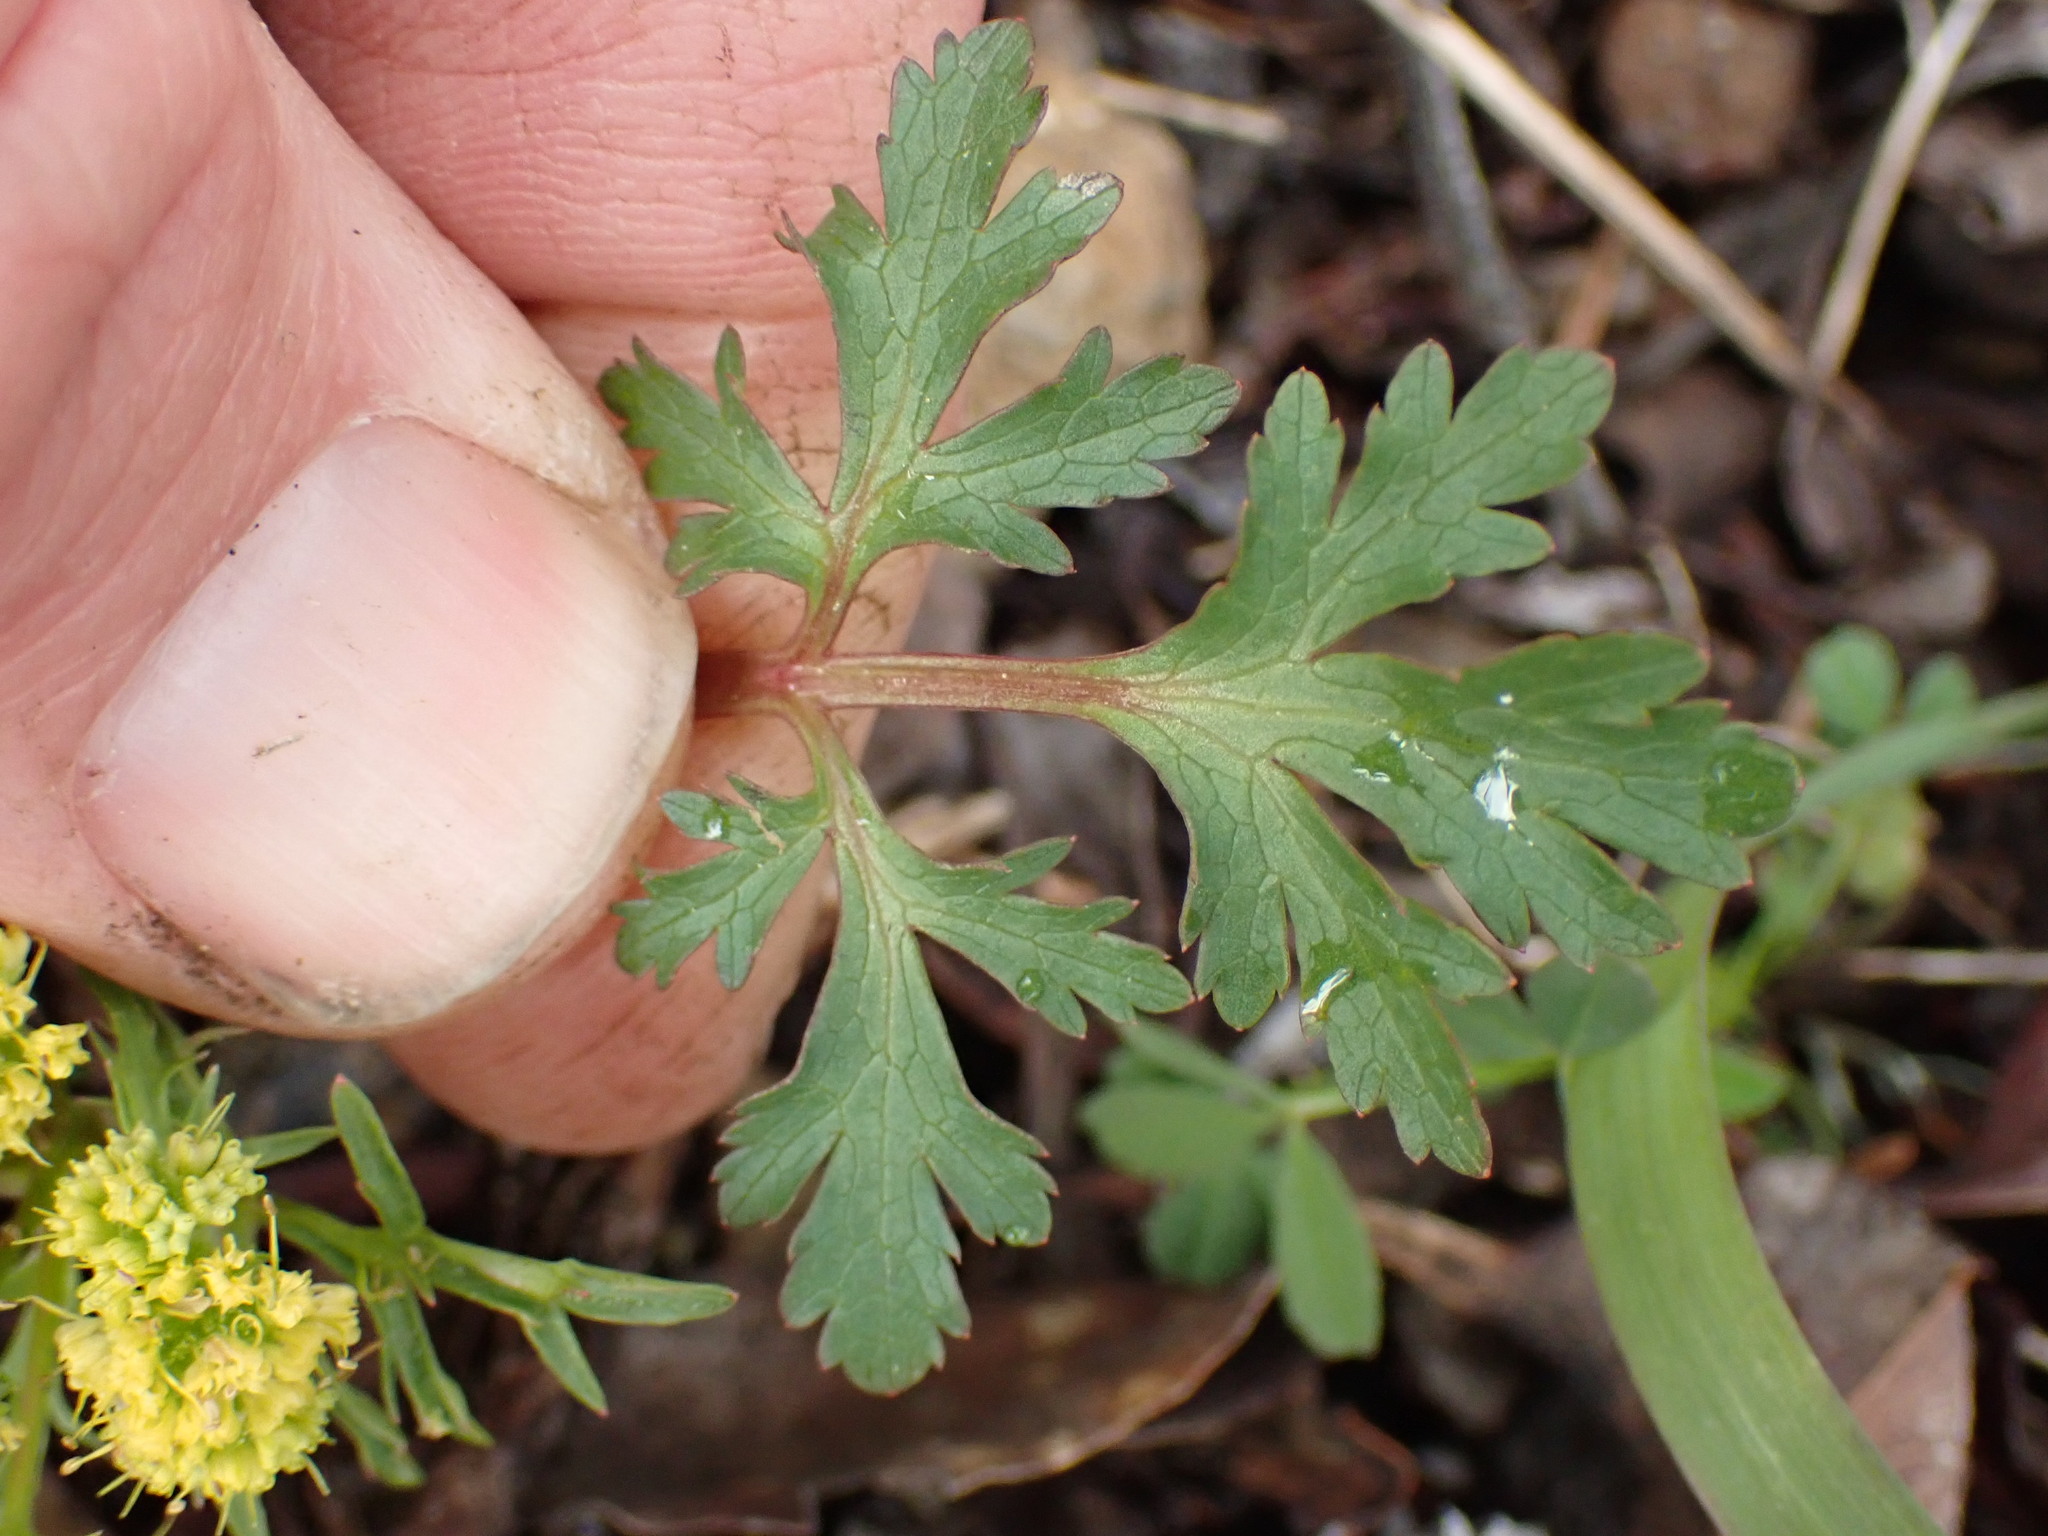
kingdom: Plantae
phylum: Tracheophyta
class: Magnoliopsida
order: Apiales
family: Apiaceae
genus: Sanicula
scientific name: Sanicula graveolens
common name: Sierra sanicle
